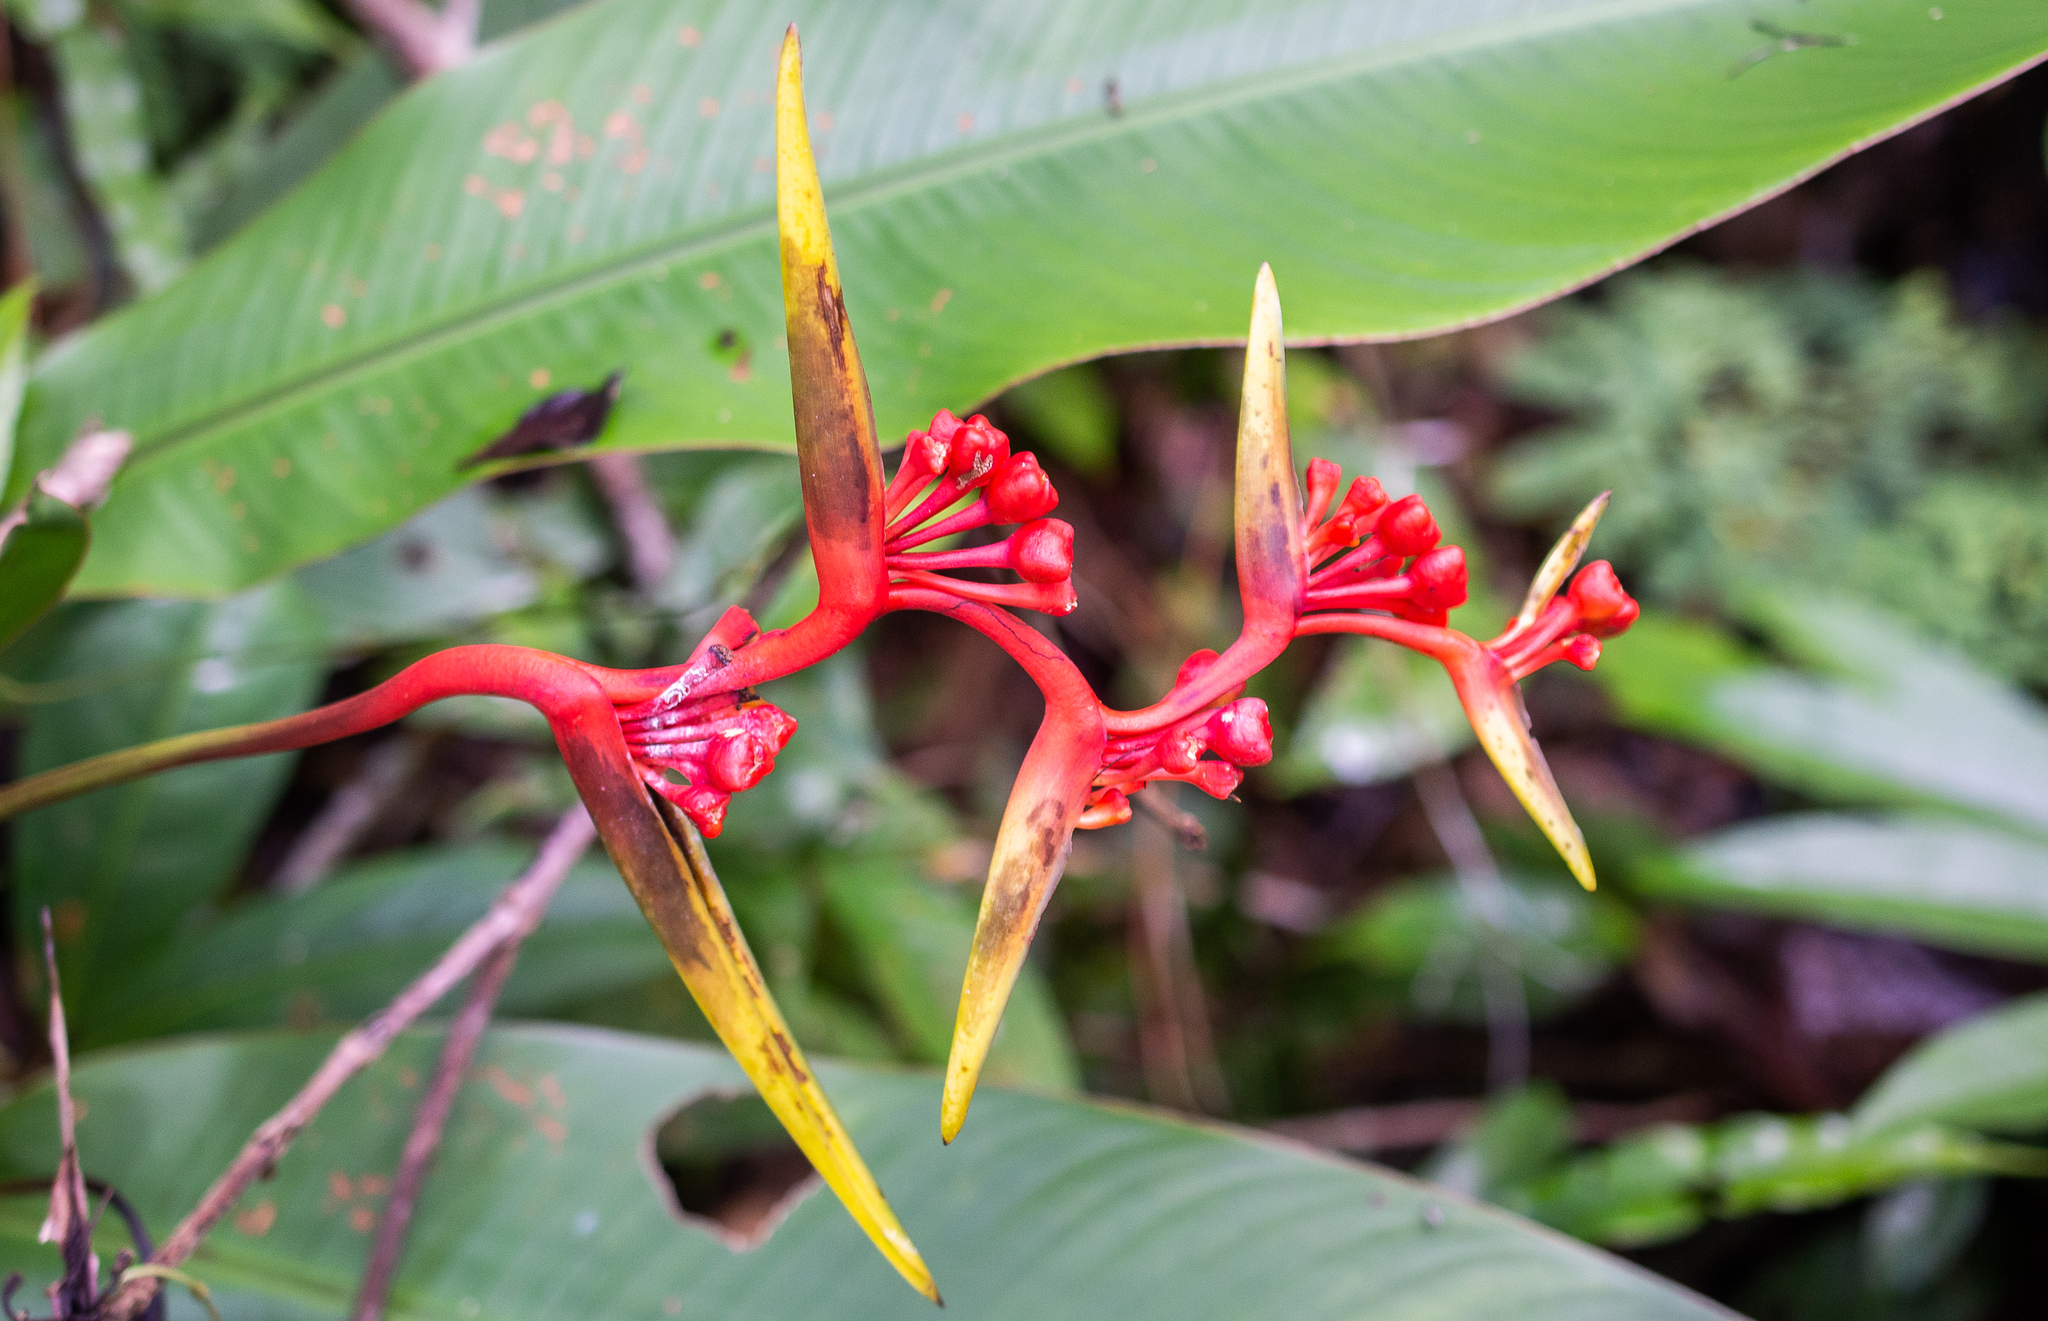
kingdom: Plantae
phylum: Tracheophyta
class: Liliopsida
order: Zingiberales
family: Heliconiaceae
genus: Heliconia
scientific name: Heliconia richardiana
